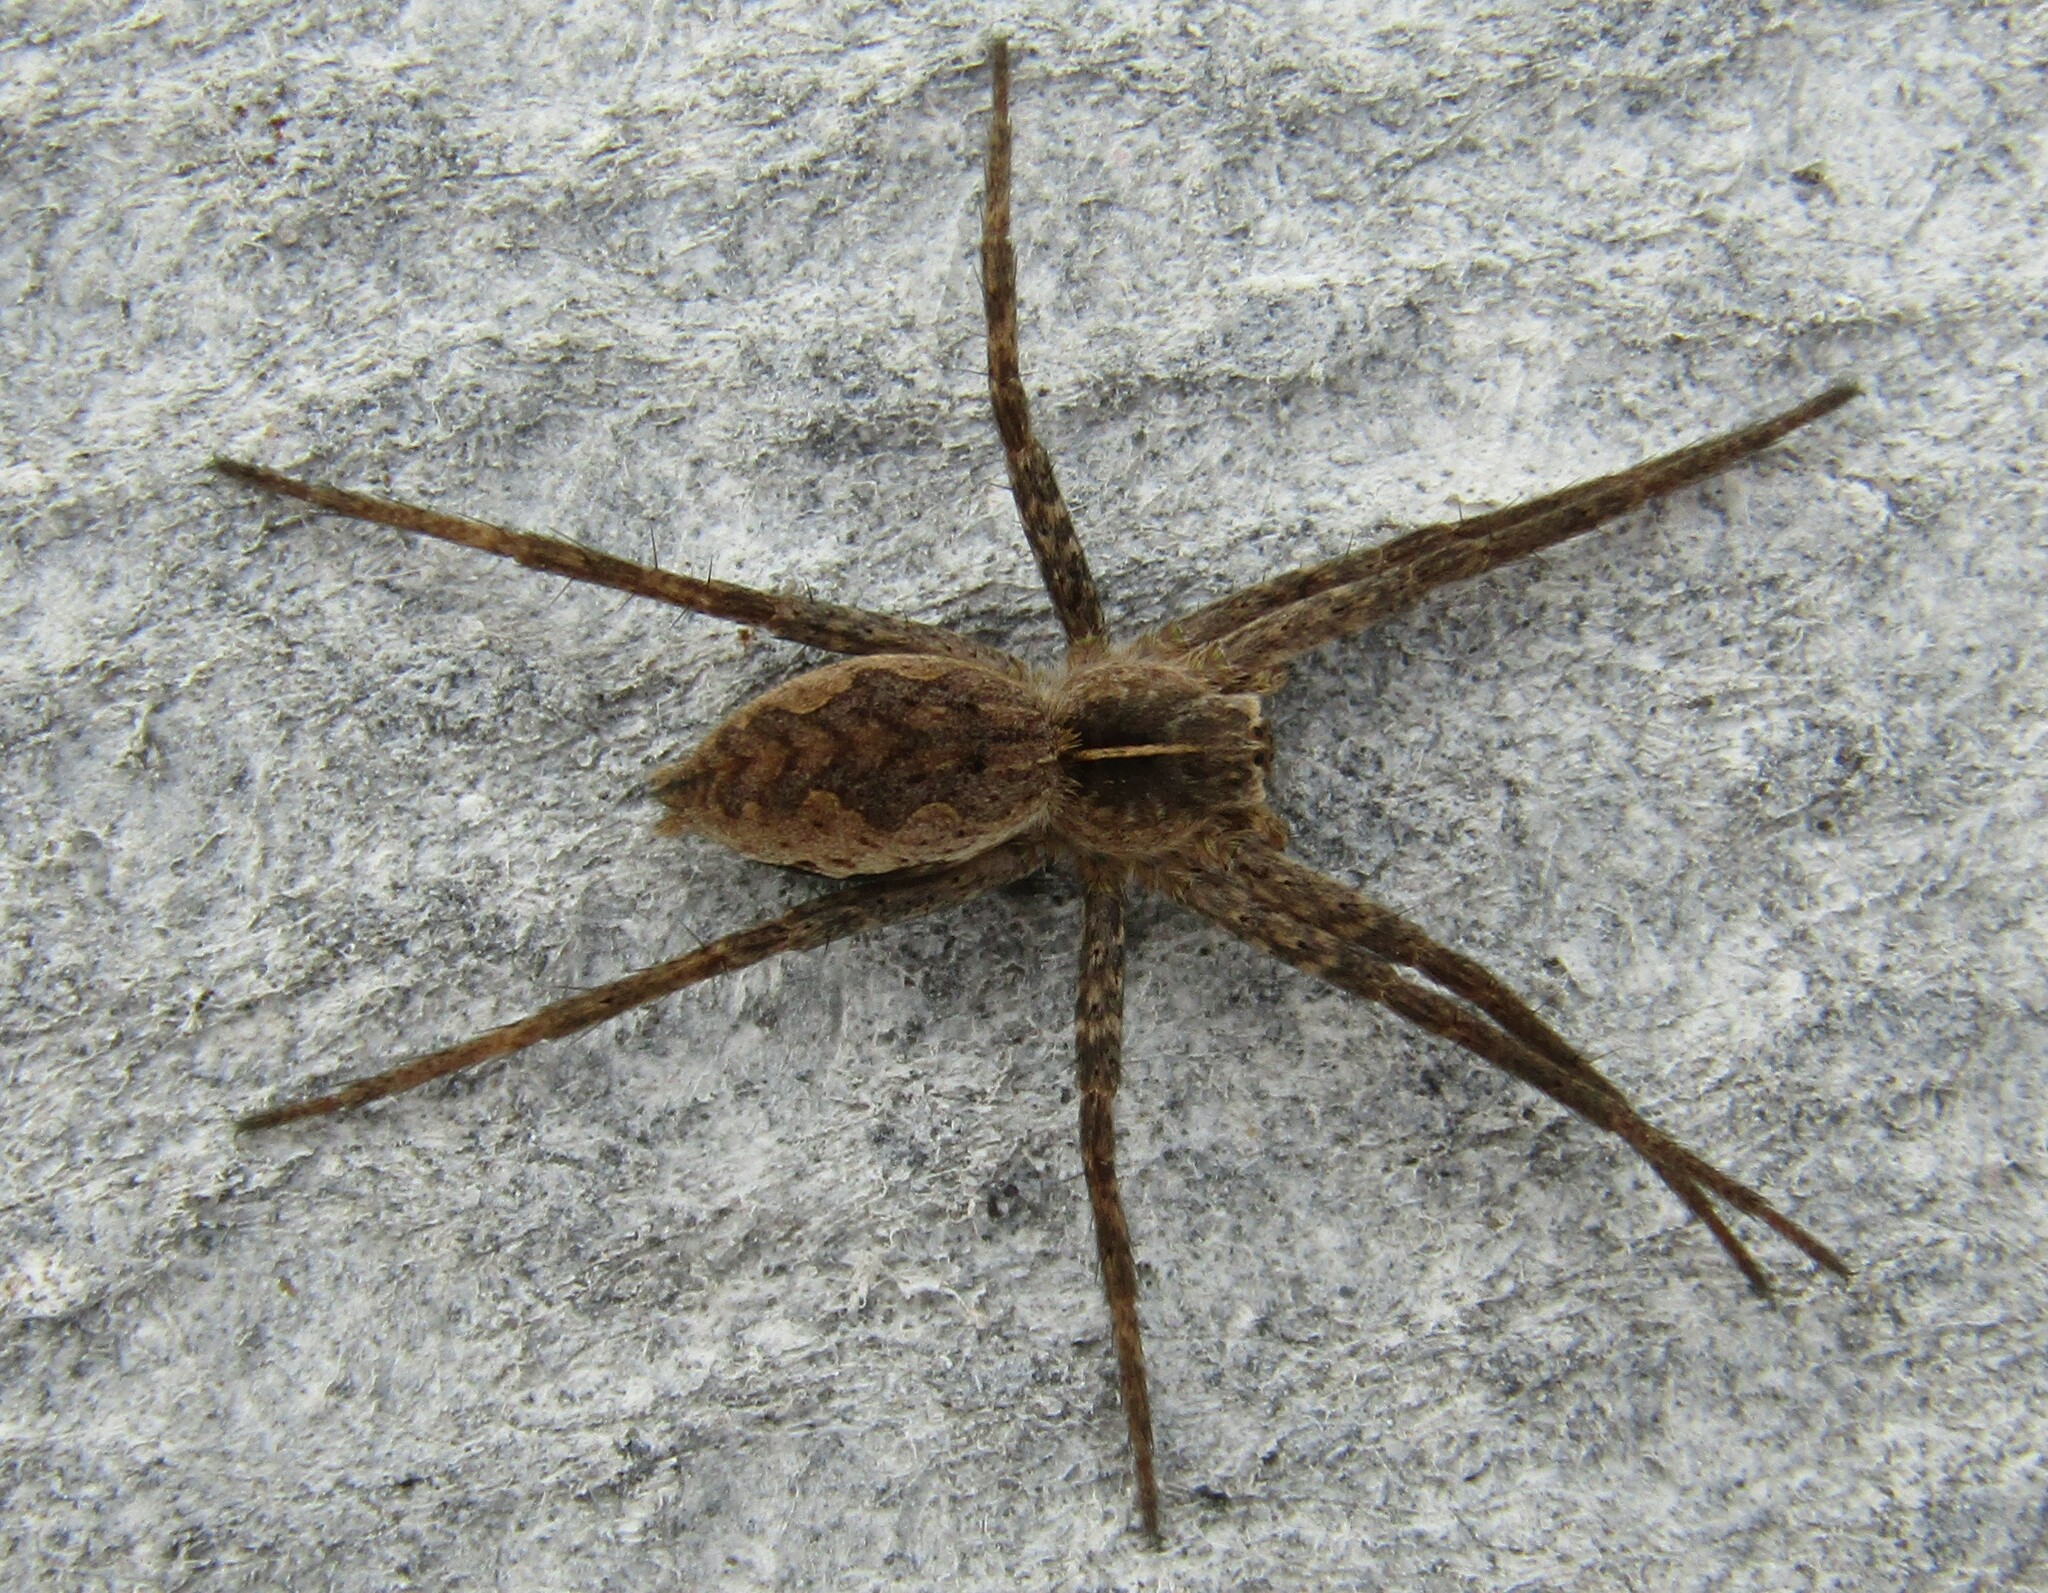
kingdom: Animalia
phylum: Arthropoda
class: Arachnida
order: Araneae
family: Pisauridae
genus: Pisaura
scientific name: Pisaura mirabilis
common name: Tent spider
